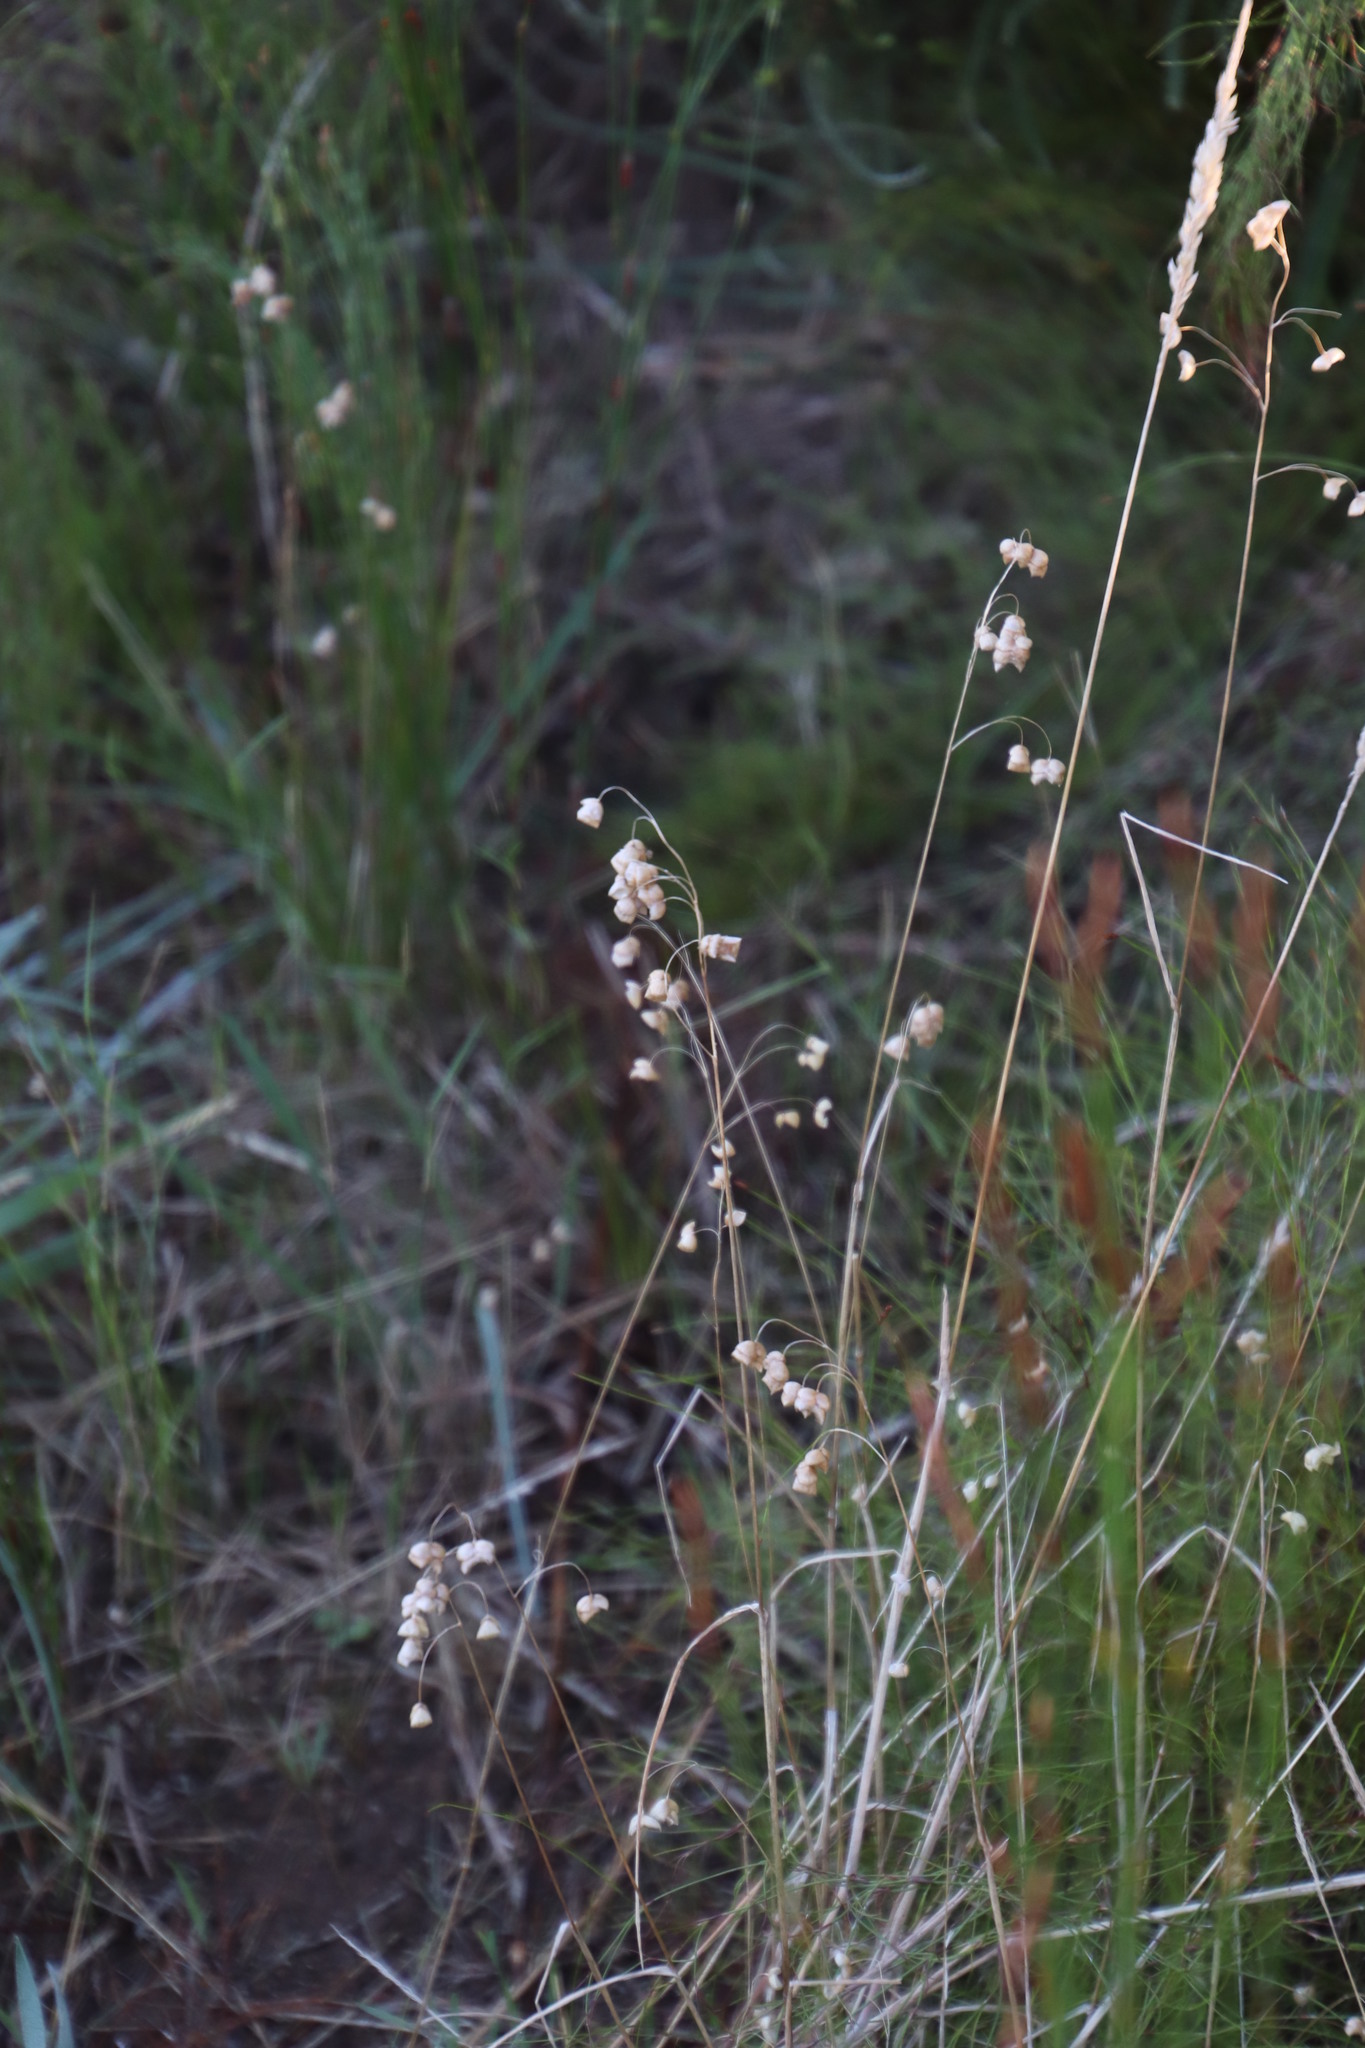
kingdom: Plantae
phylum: Tracheophyta
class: Liliopsida
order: Poales
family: Poaceae
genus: Briza
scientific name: Briza maxima
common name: Big quakinggrass
